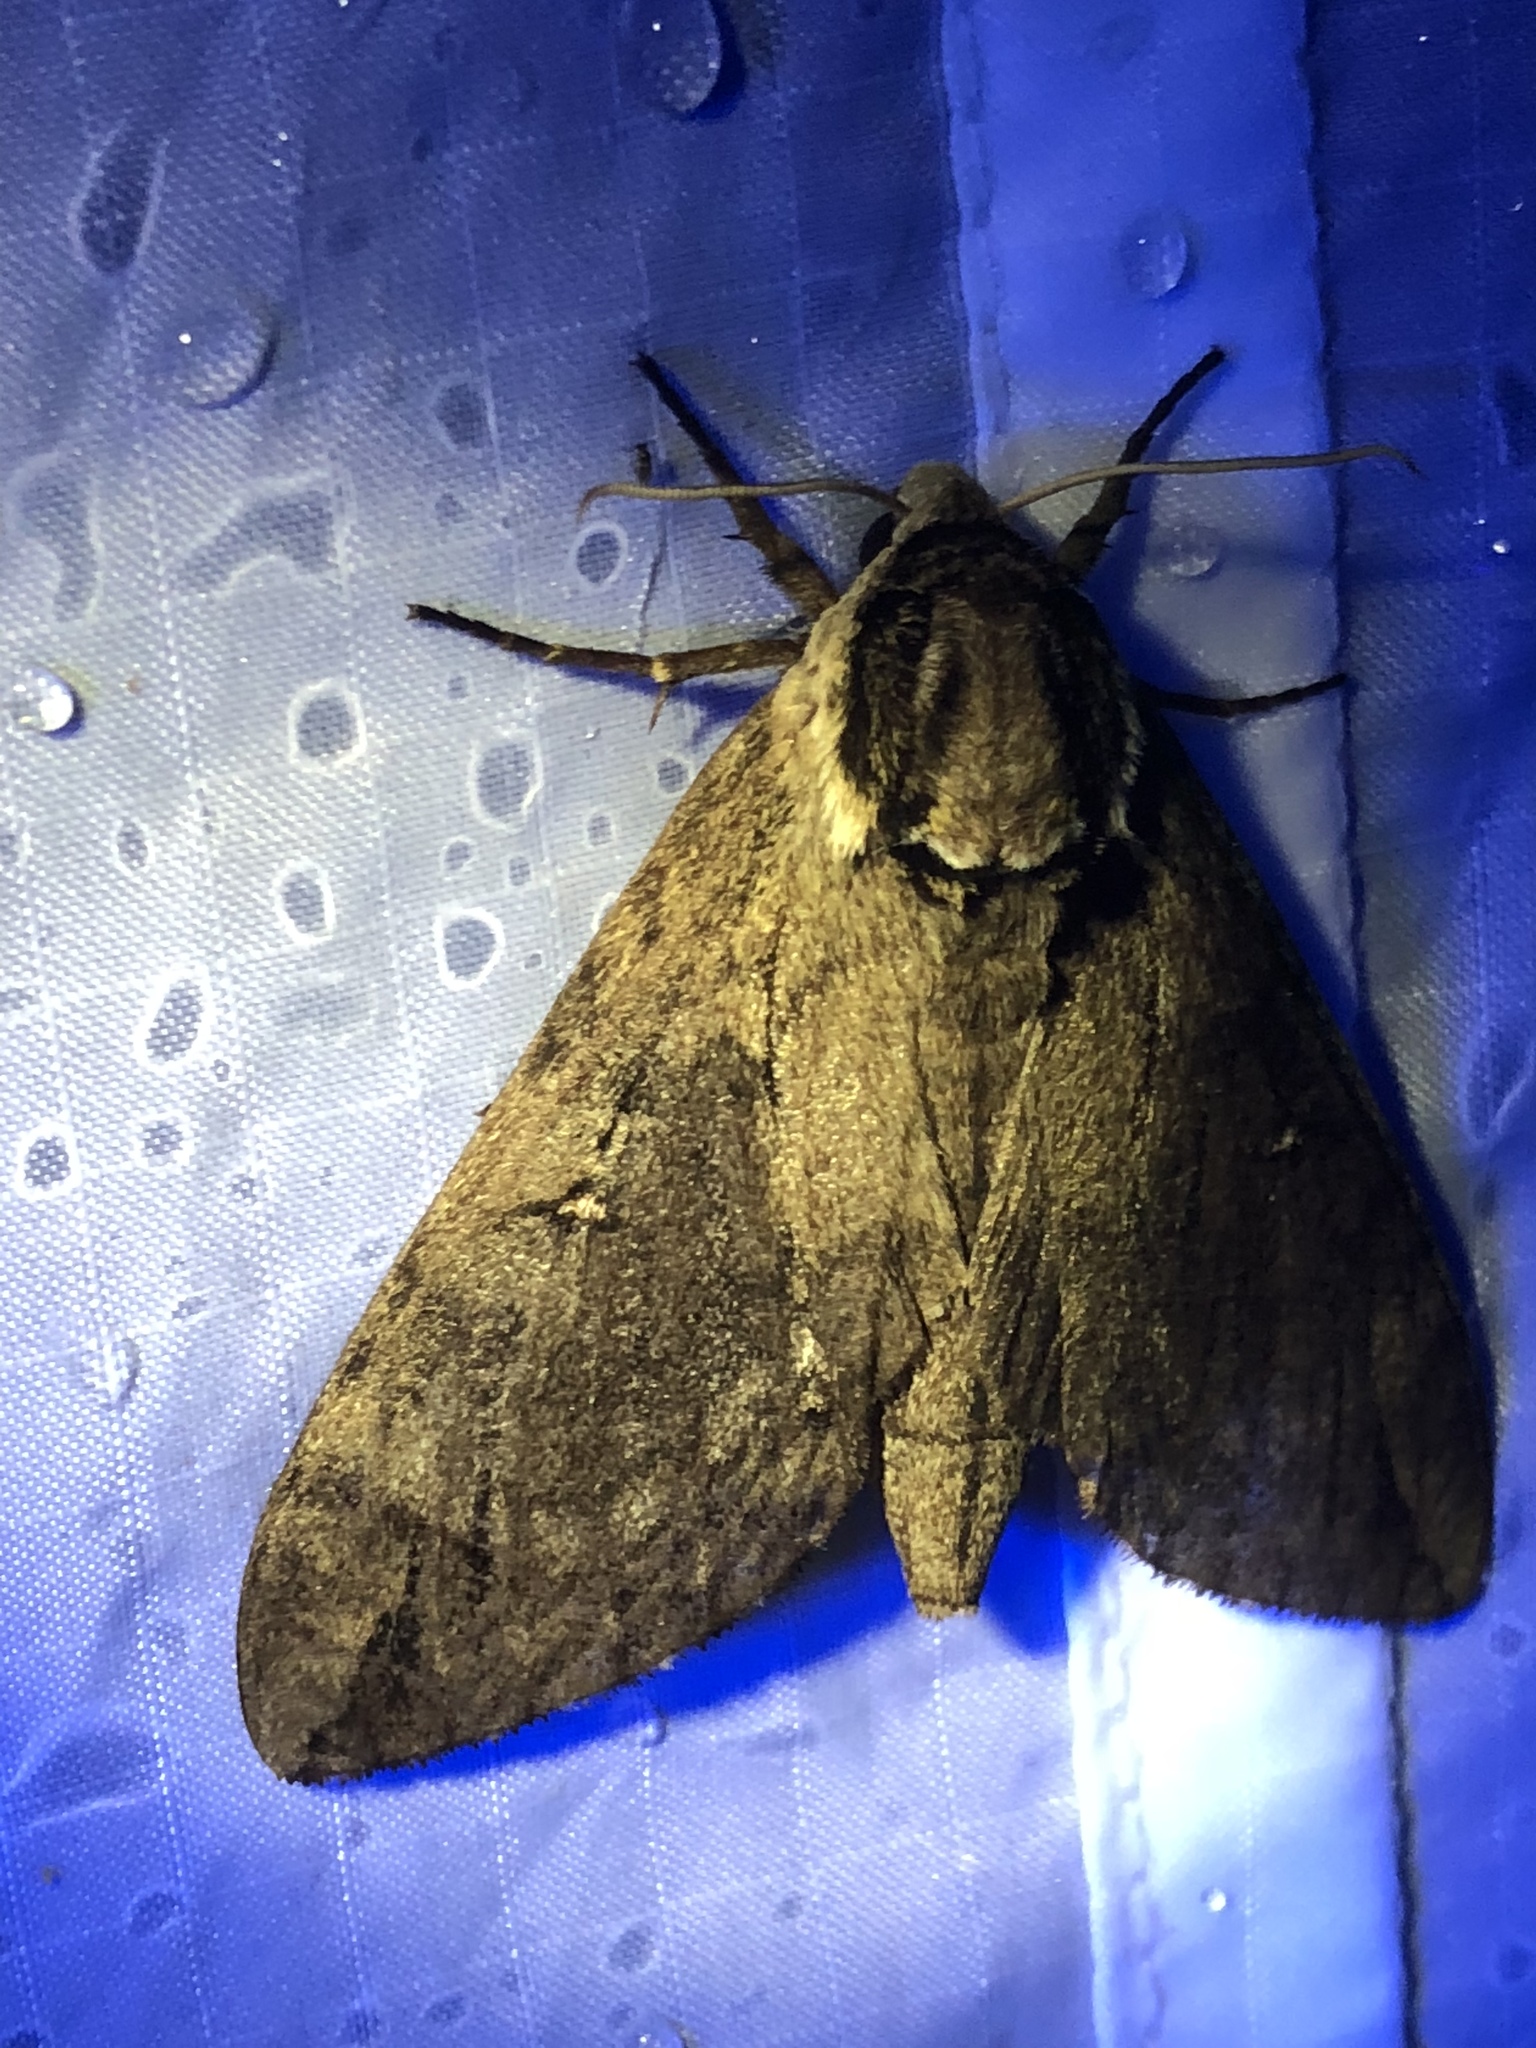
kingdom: Animalia
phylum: Arthropoda
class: Insecta
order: Lepidoptera
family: Sphingidae
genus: Ceratomia
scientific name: Ceratomia catalpae
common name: Catalpa hornworm
